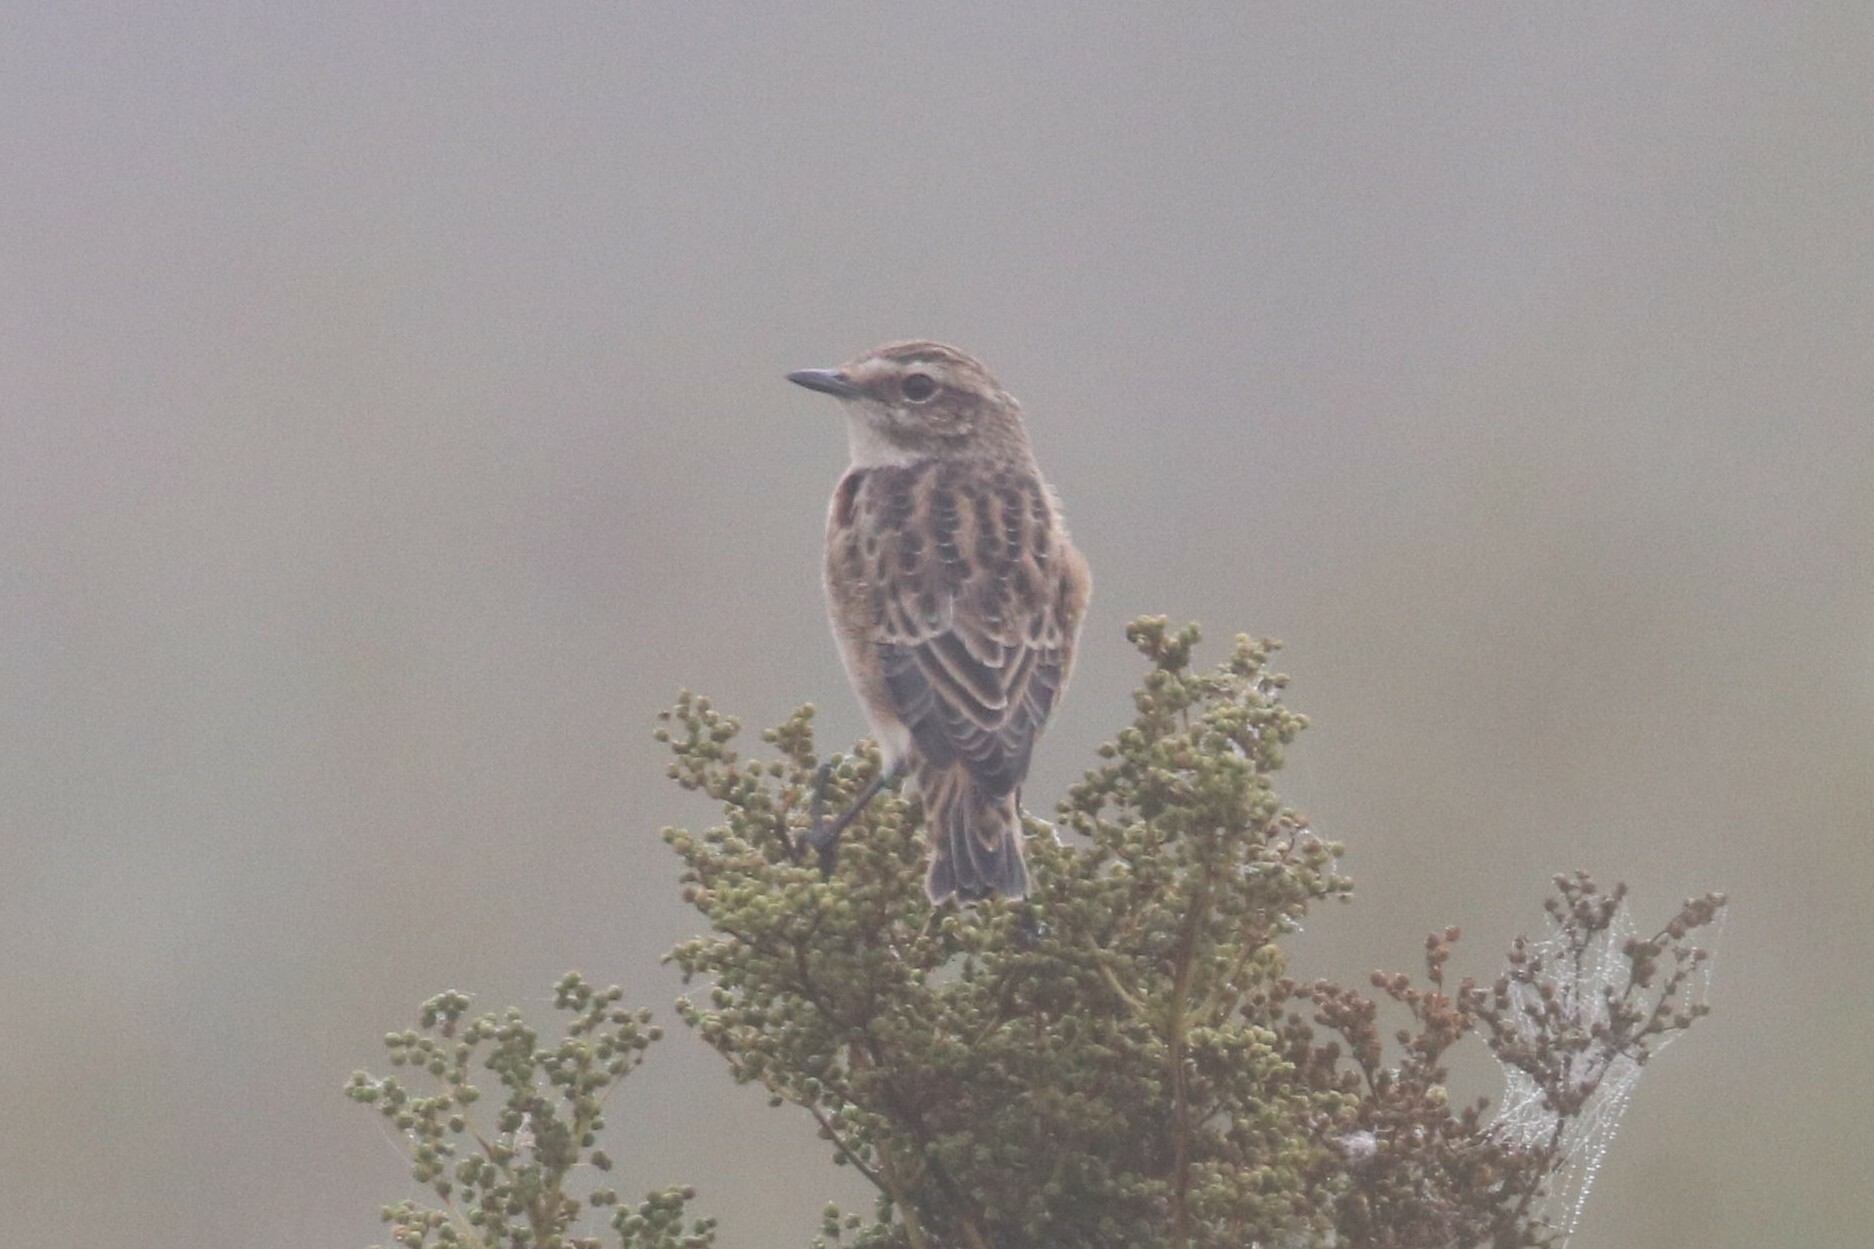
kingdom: Animalia
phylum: Chordata
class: Aves
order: Passeriformes
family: Muscicapidae
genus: Saxicola
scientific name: Saxicola rubetra
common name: Whinchat
